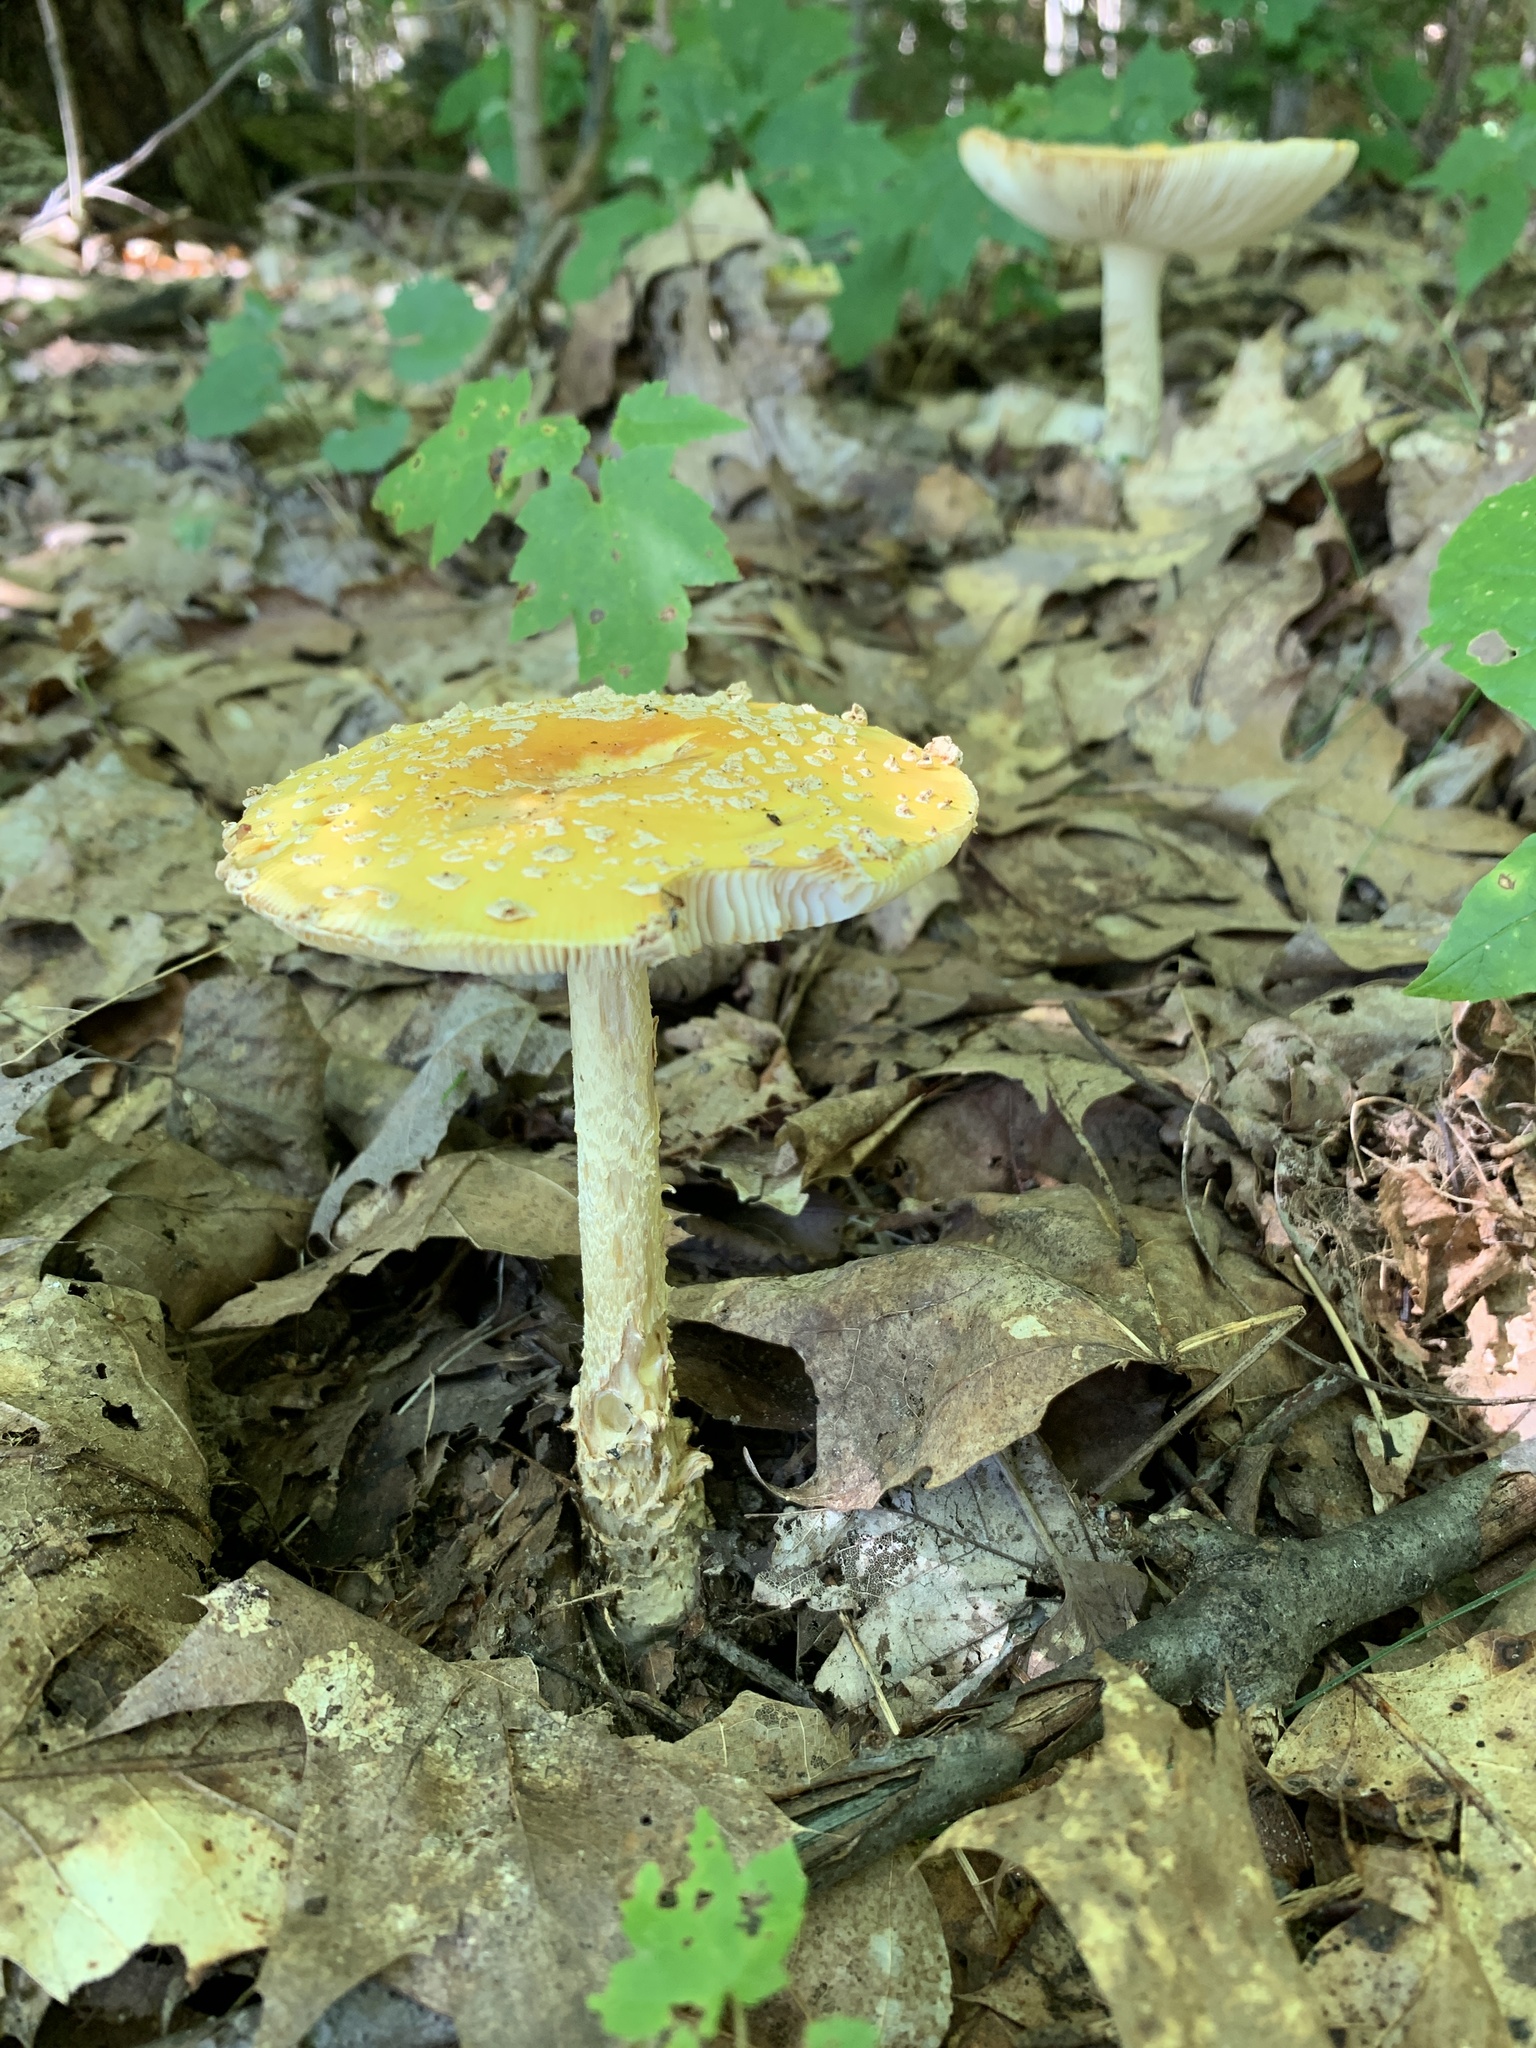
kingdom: Fungi
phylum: Basidiomycota
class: Agaricomycetes
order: Agaricales
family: Amanitaceae
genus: Amanita
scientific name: Amanita muscaria
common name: Fly agaric
